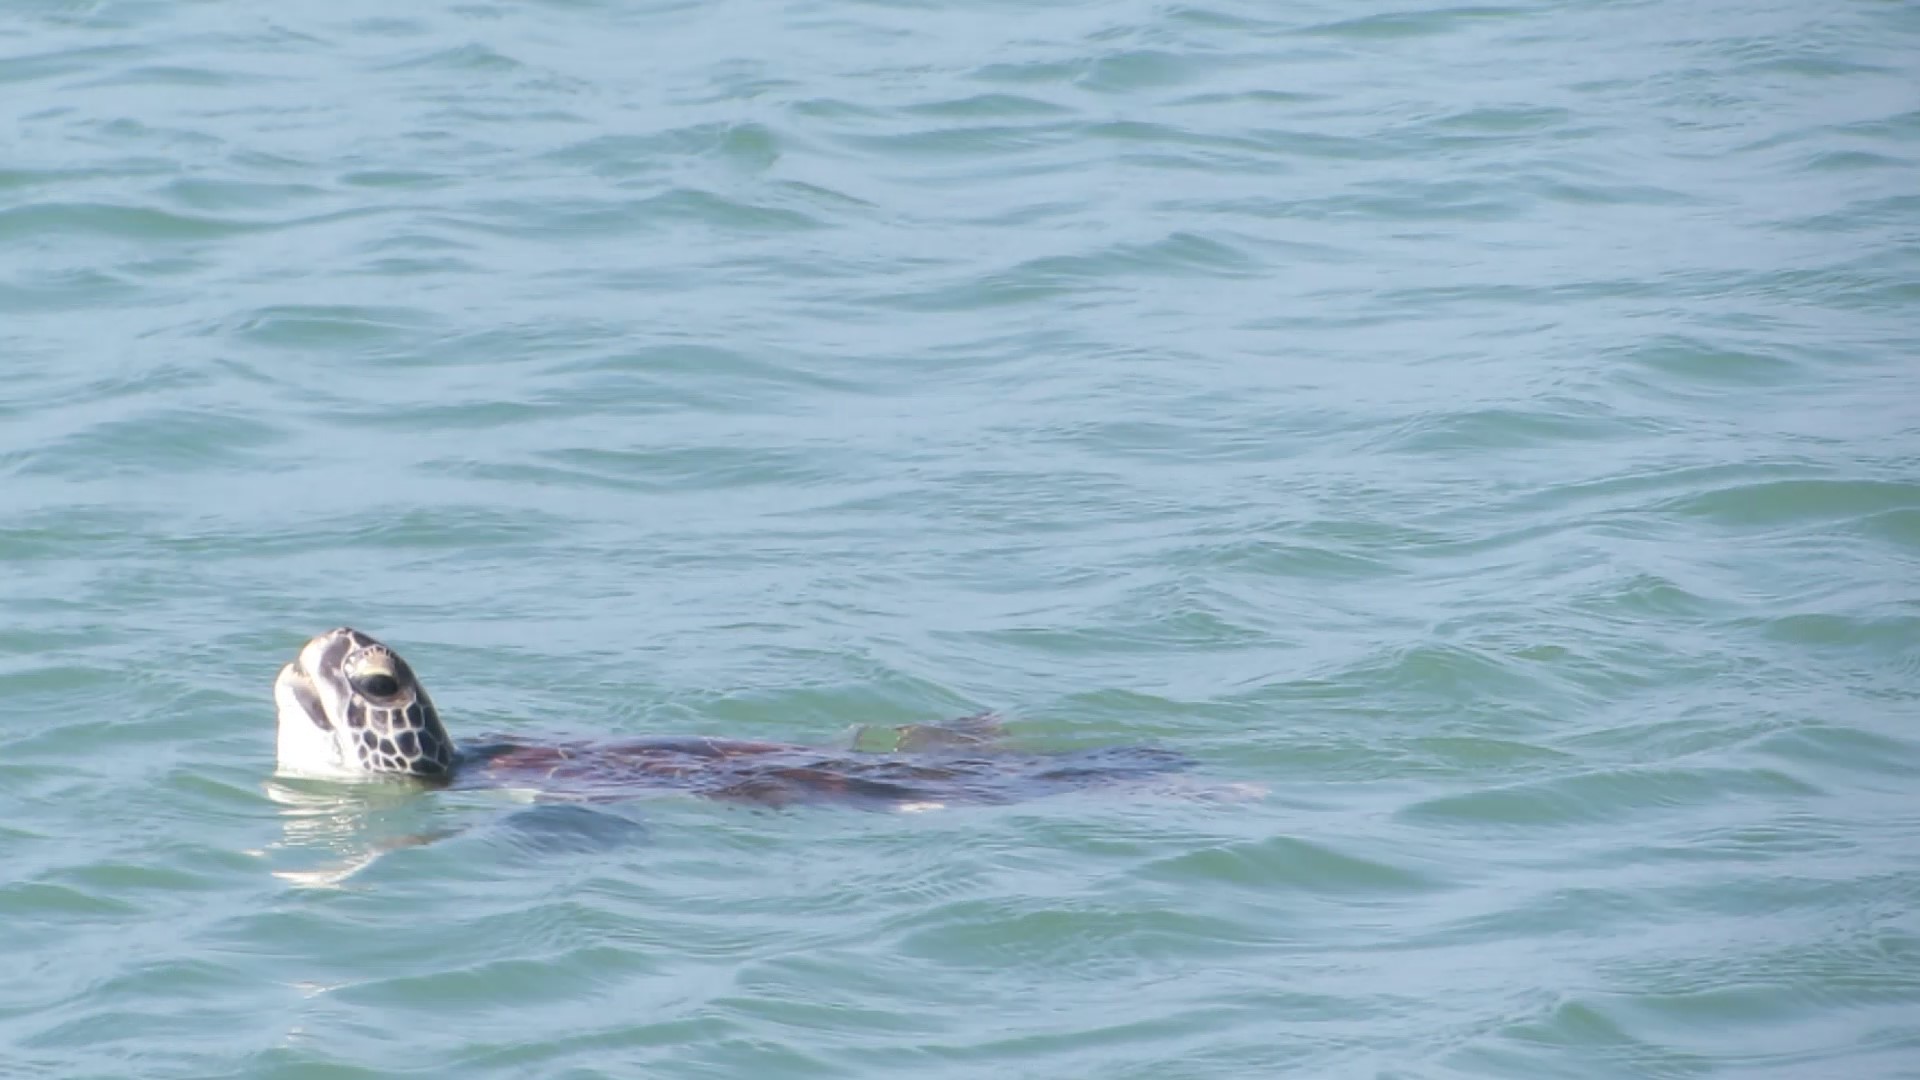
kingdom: Animalia
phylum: Chordata
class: Testudines
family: Cheloniidae
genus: Chelonia
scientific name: Chelonia mydas
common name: Green turtle
